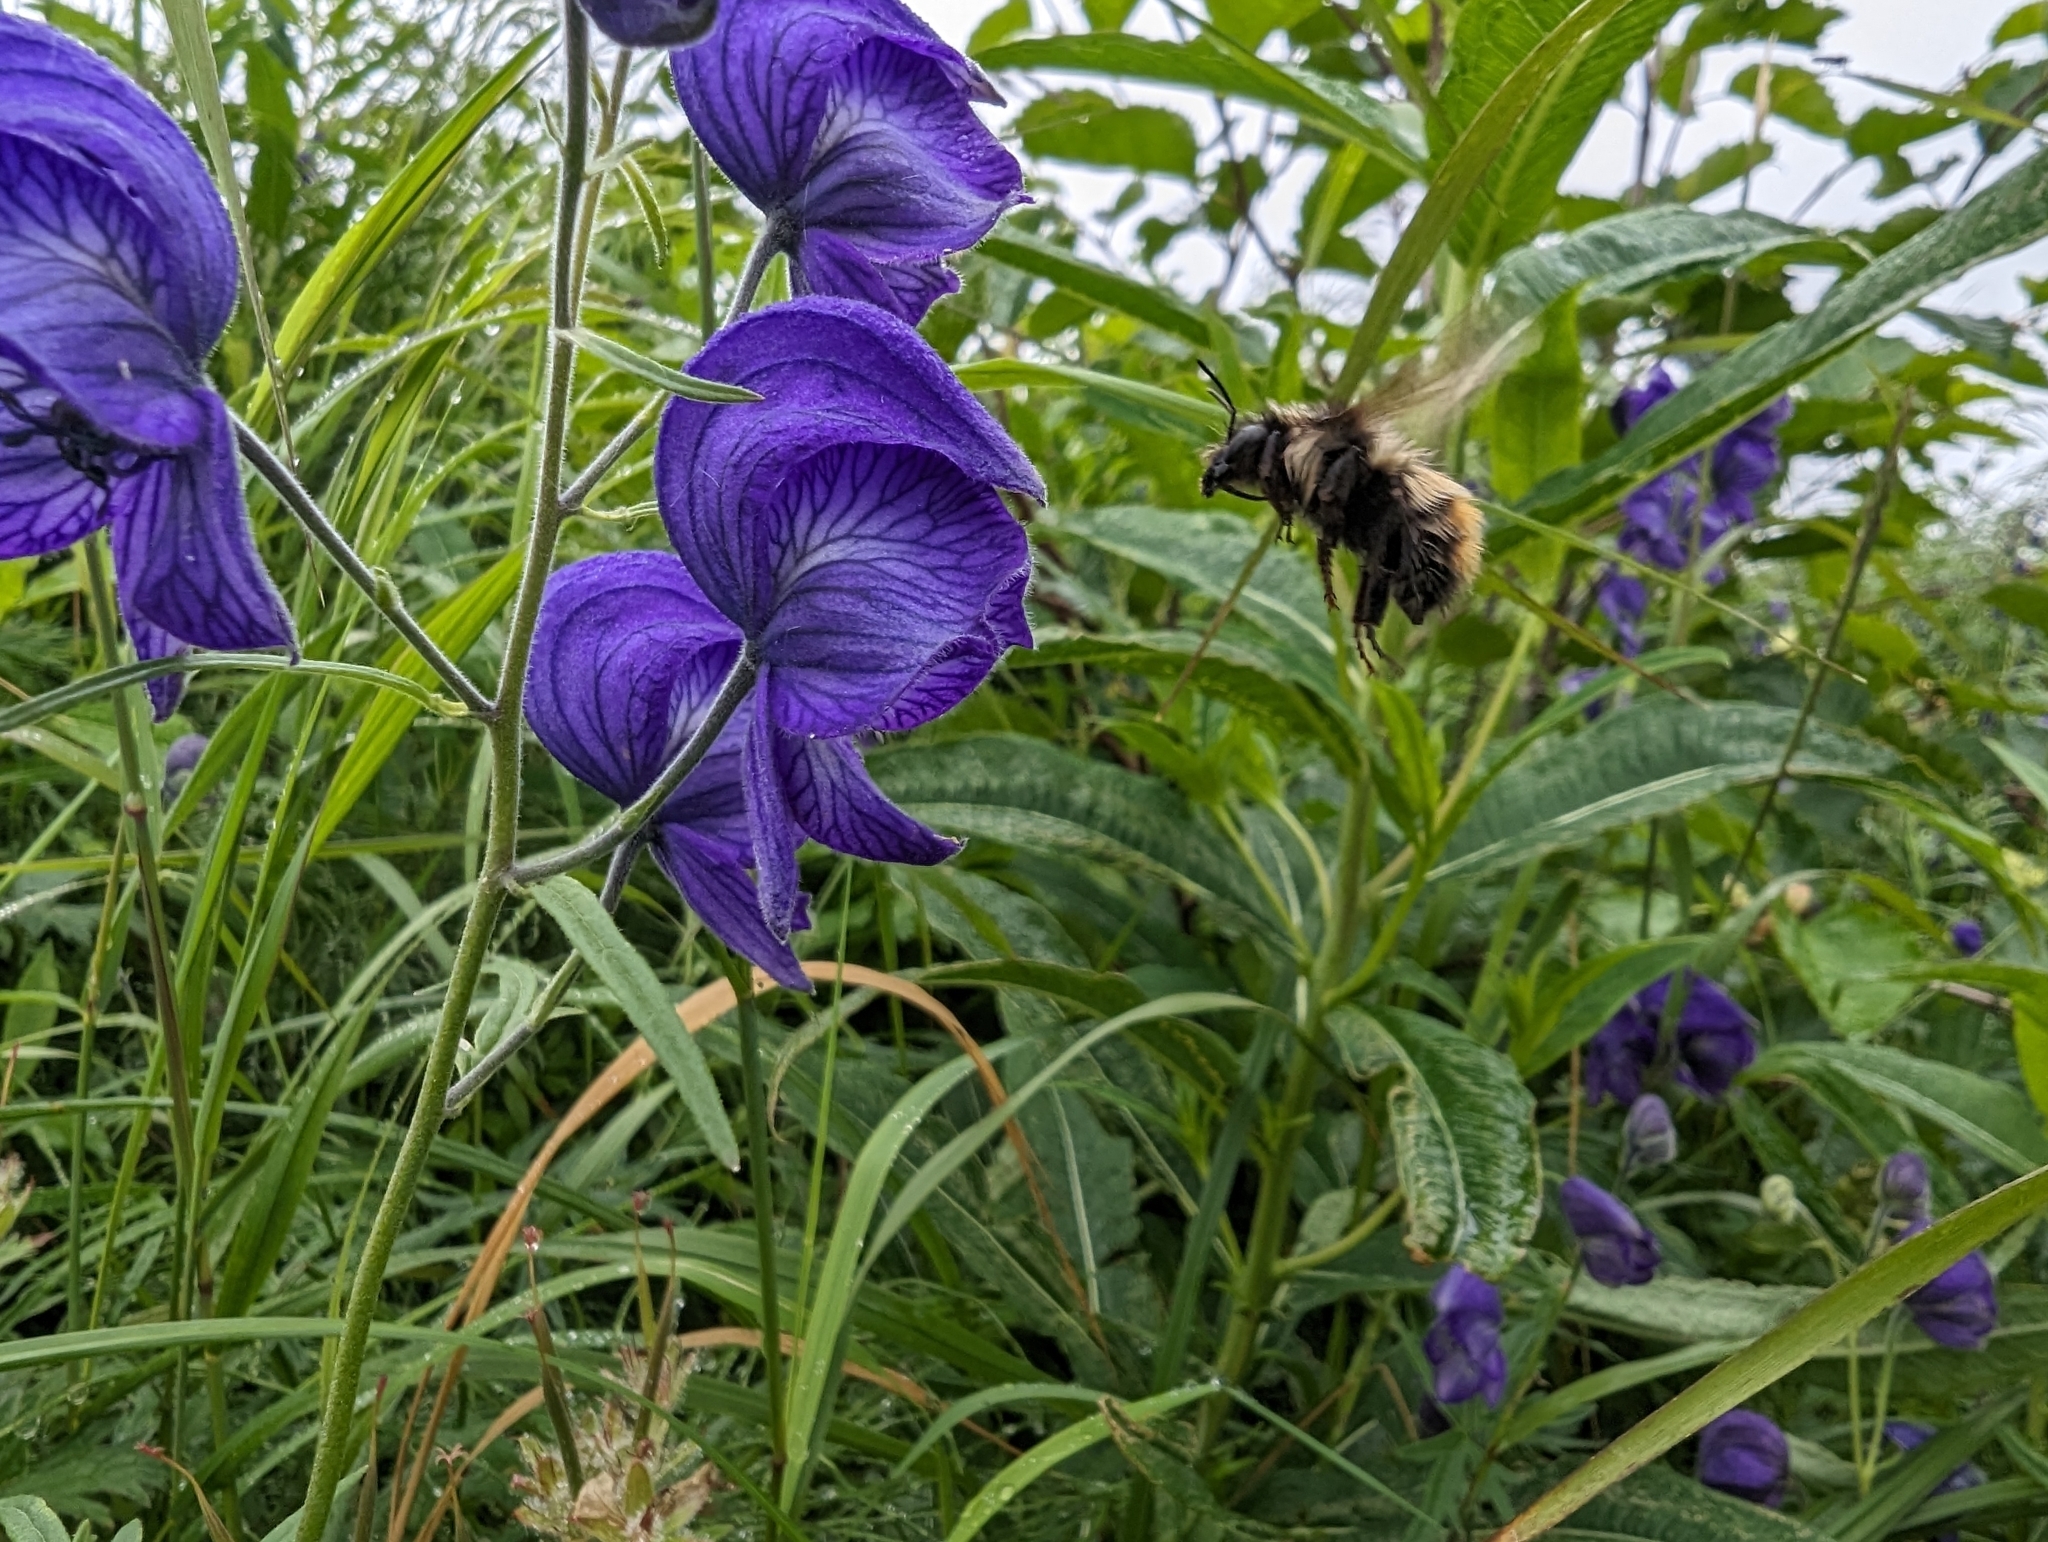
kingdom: Animalia
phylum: Arthropoda
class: Insecta
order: Hymenoptera
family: Apidae
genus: Bombus
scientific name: Bombus flavifrons
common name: Yellow head bumble bee
